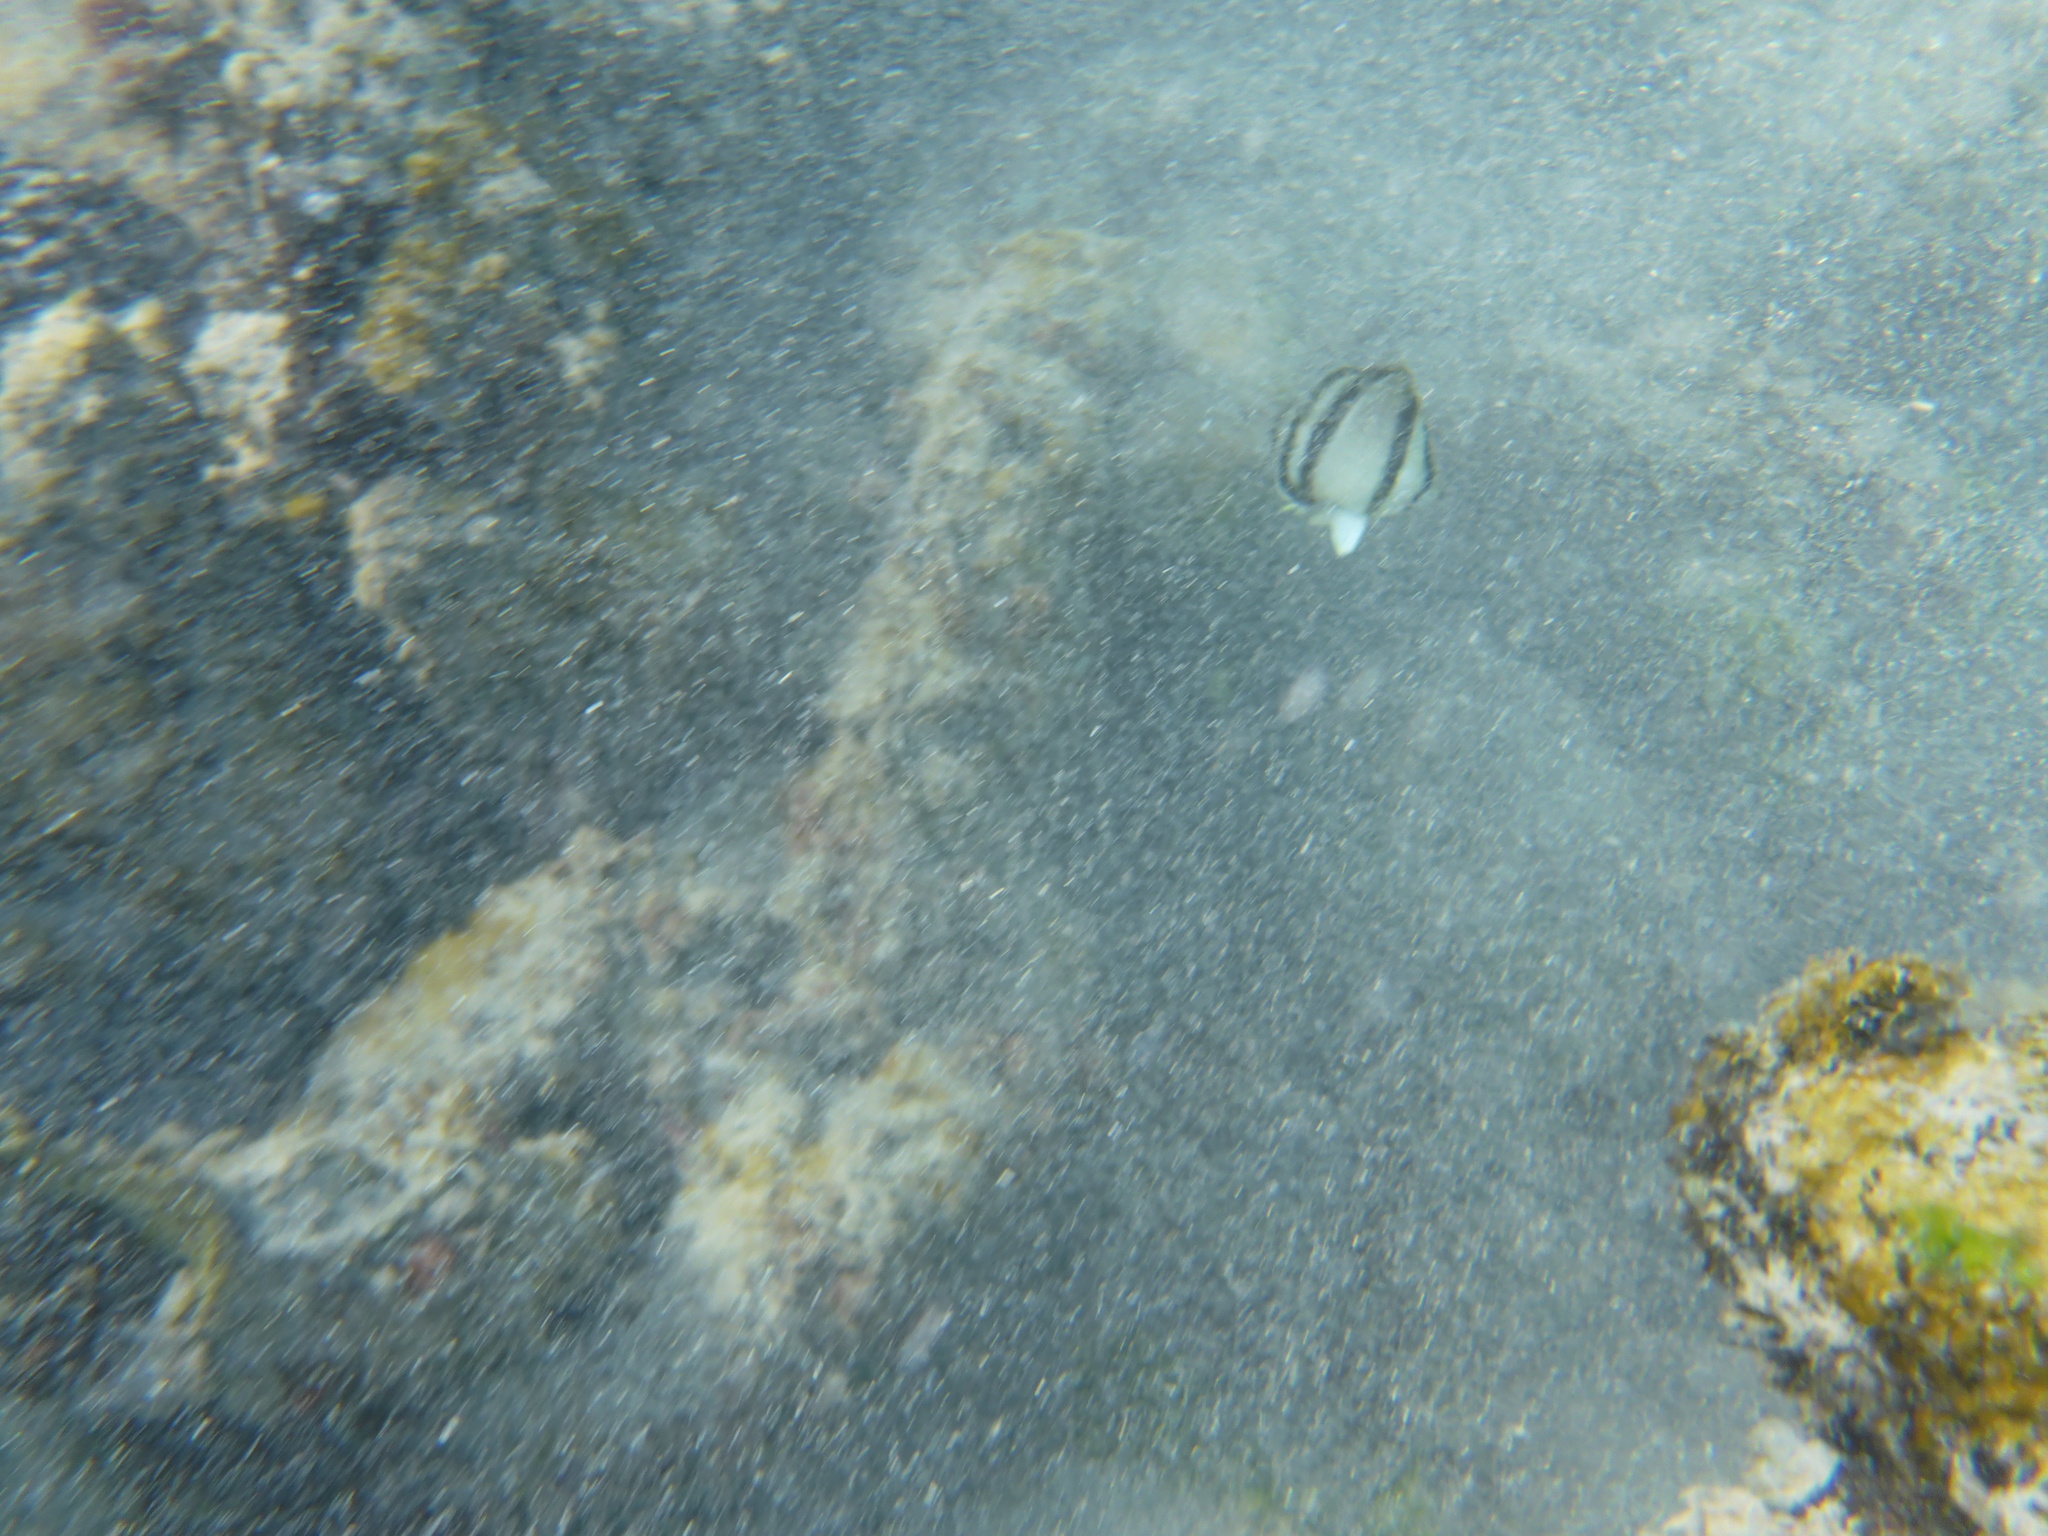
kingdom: Animalia
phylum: Chordata
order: Perciformes
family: Chaetodontidae
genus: Chaetodon
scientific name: Chaetodon humeralis
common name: Threebanded butterflyfish
